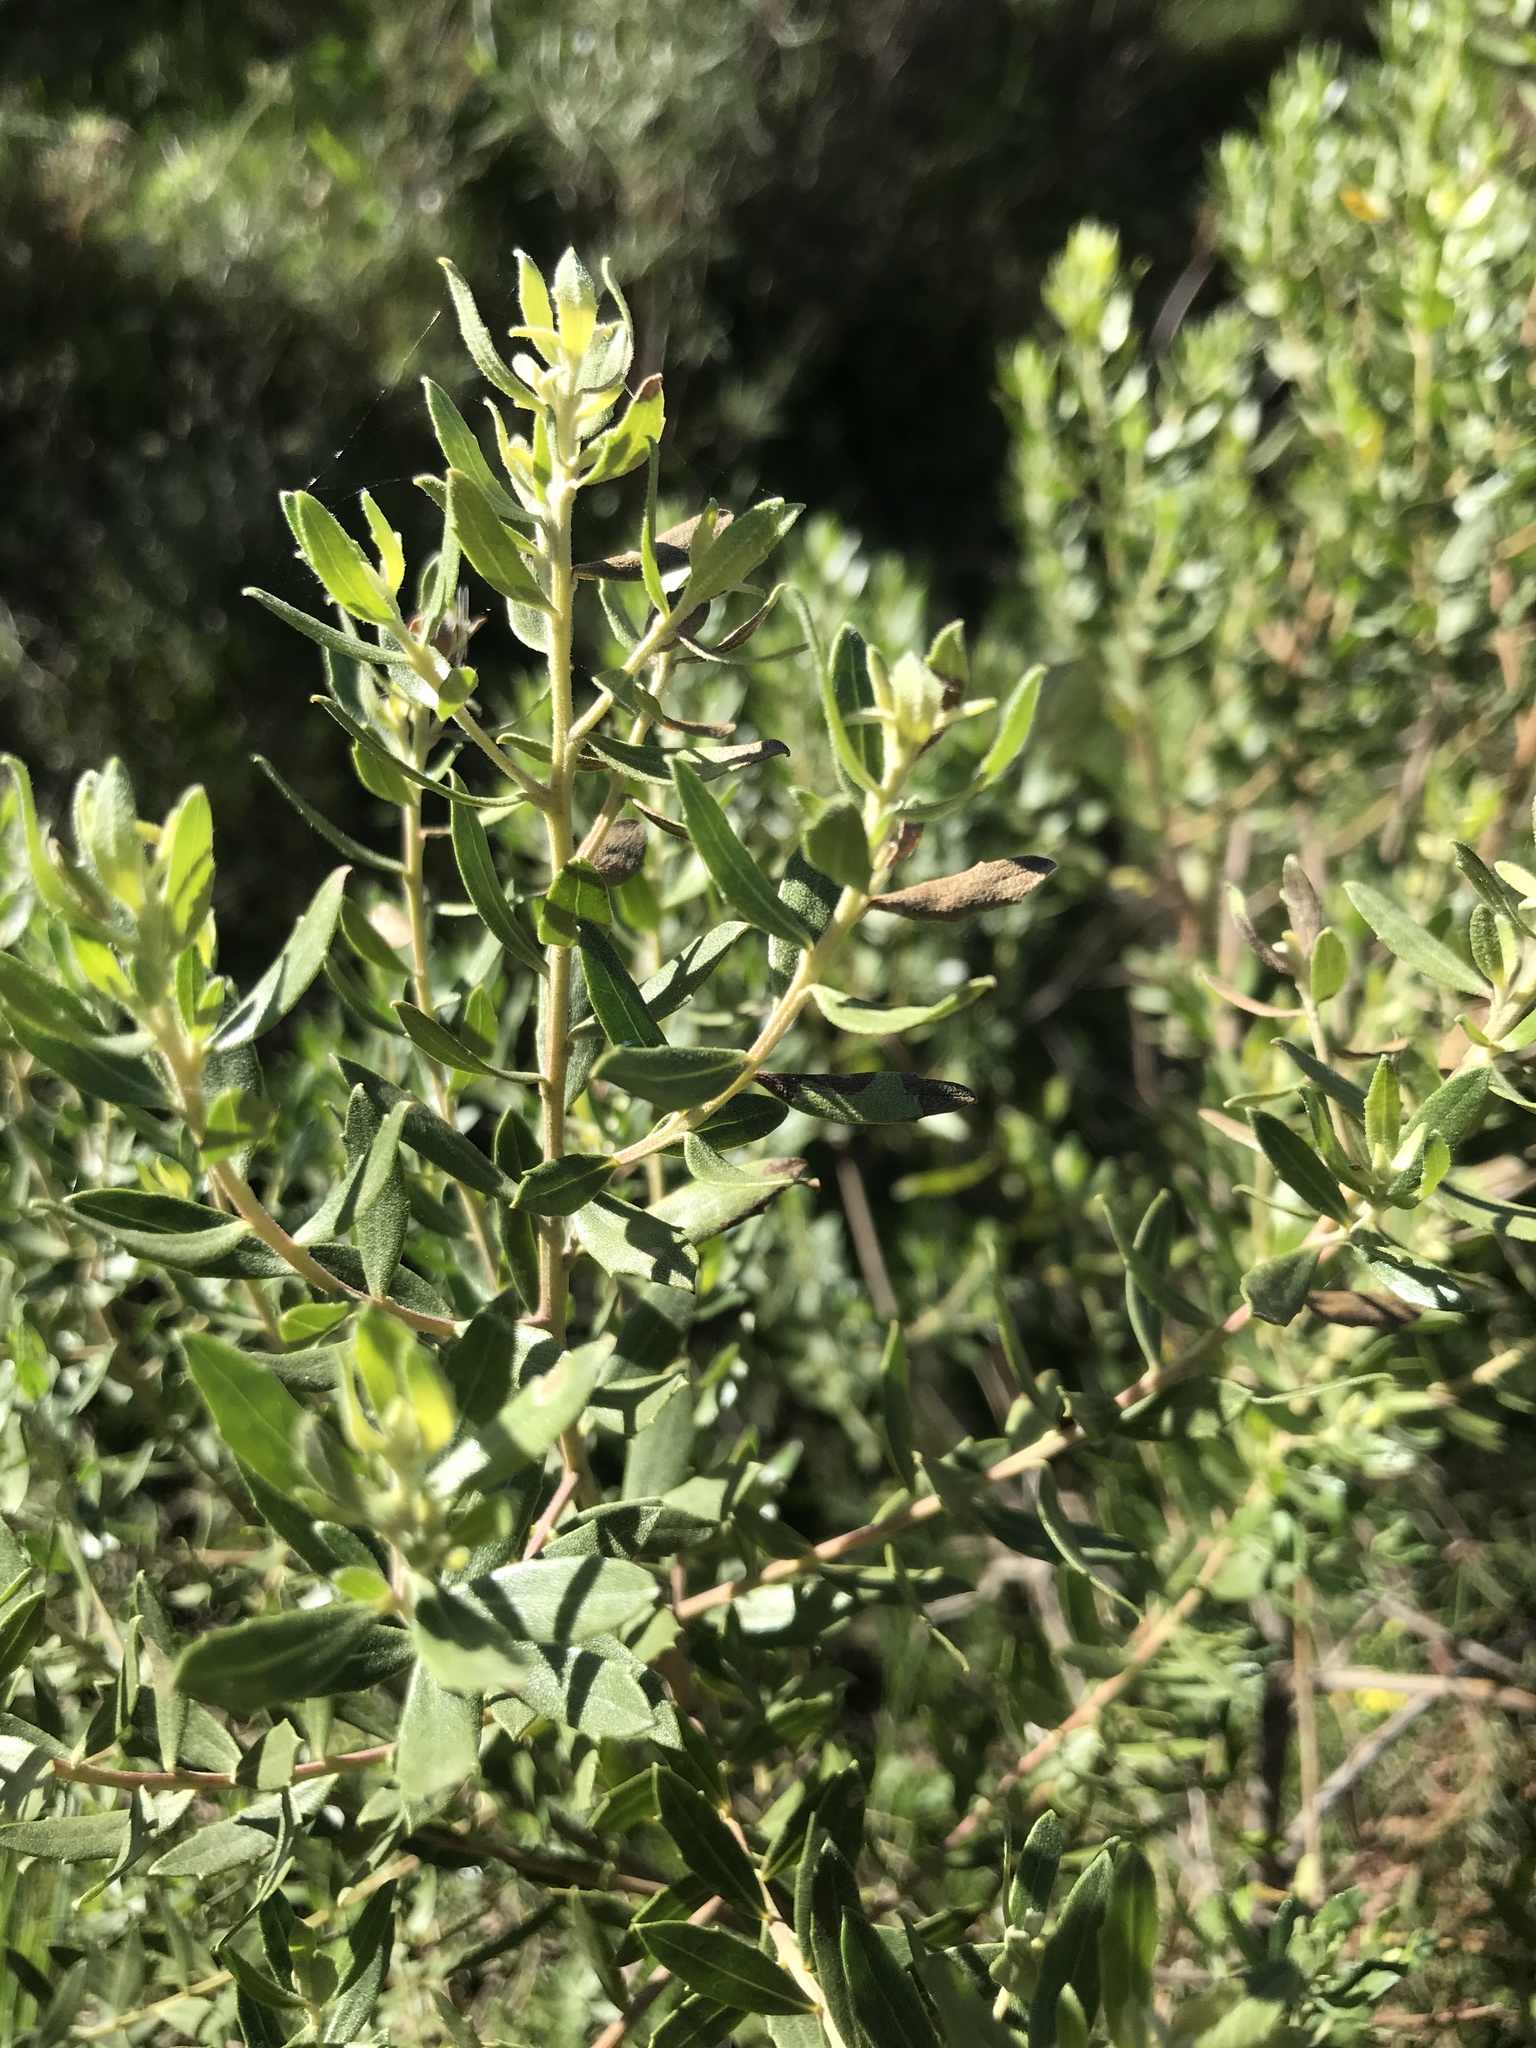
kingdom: Plantae
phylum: Tracheophyta
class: Magnoliopsida
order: Asterales
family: Asteraceae
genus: Baccharis
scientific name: Baccharis dracunculifolia
